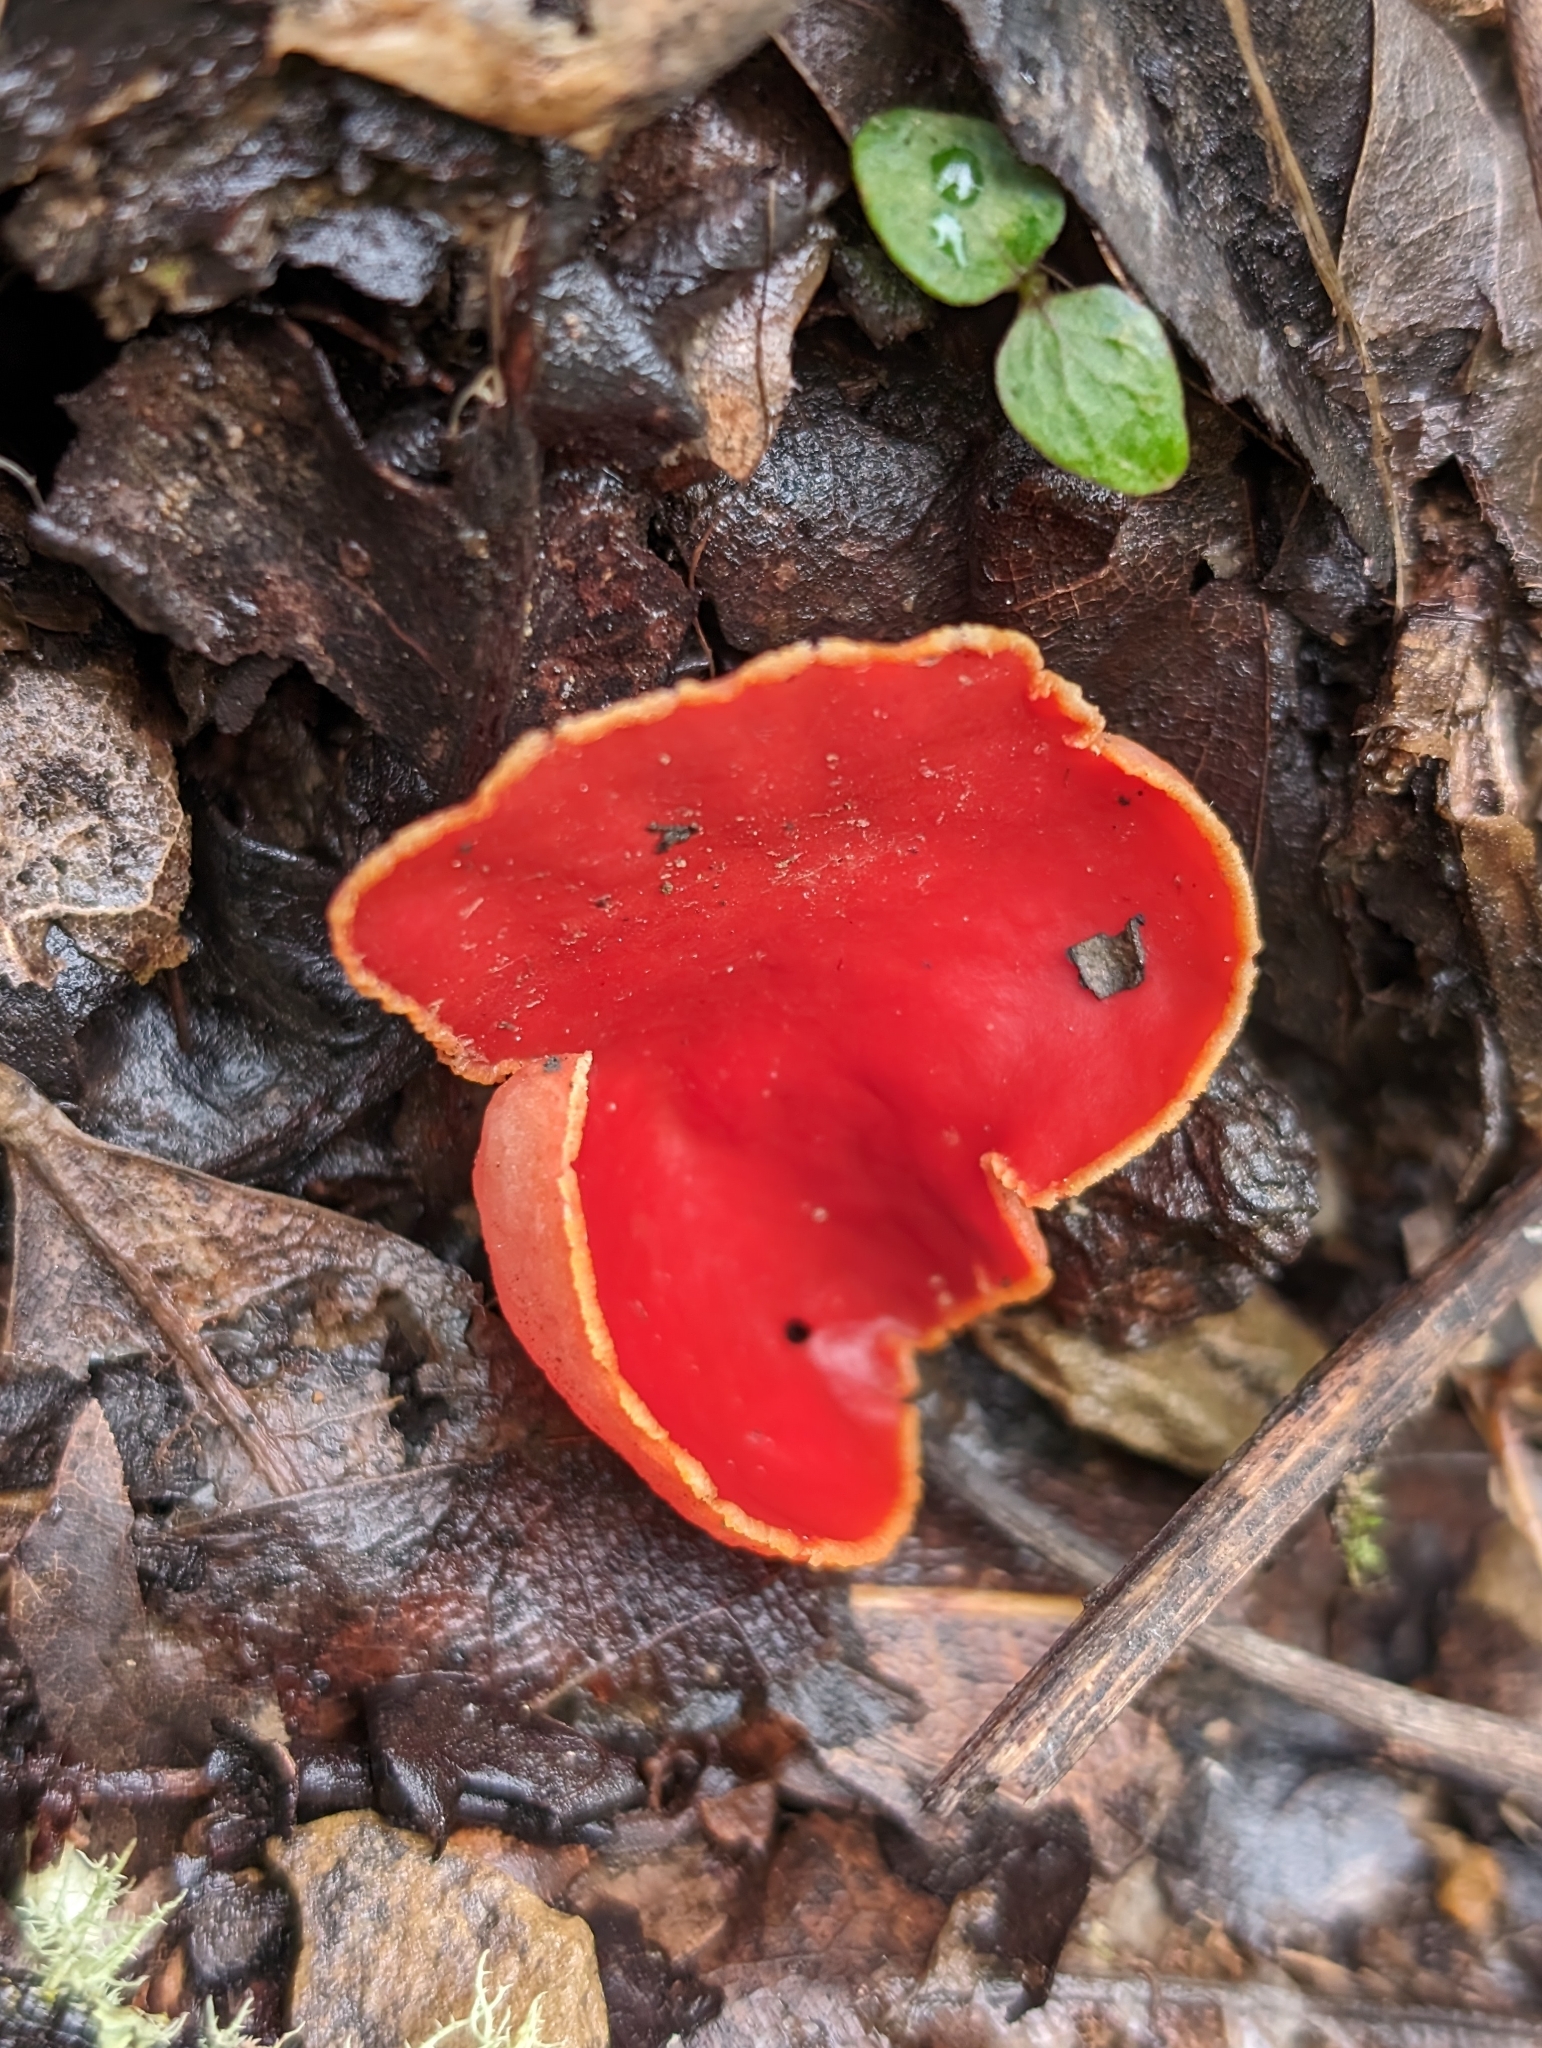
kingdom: Fungi
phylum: Ascomycota
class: Pezizomycetes
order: Pezizales
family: Sarcoscyphaceae
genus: Sarcoscypha
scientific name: Sarcoscypha coccinea
